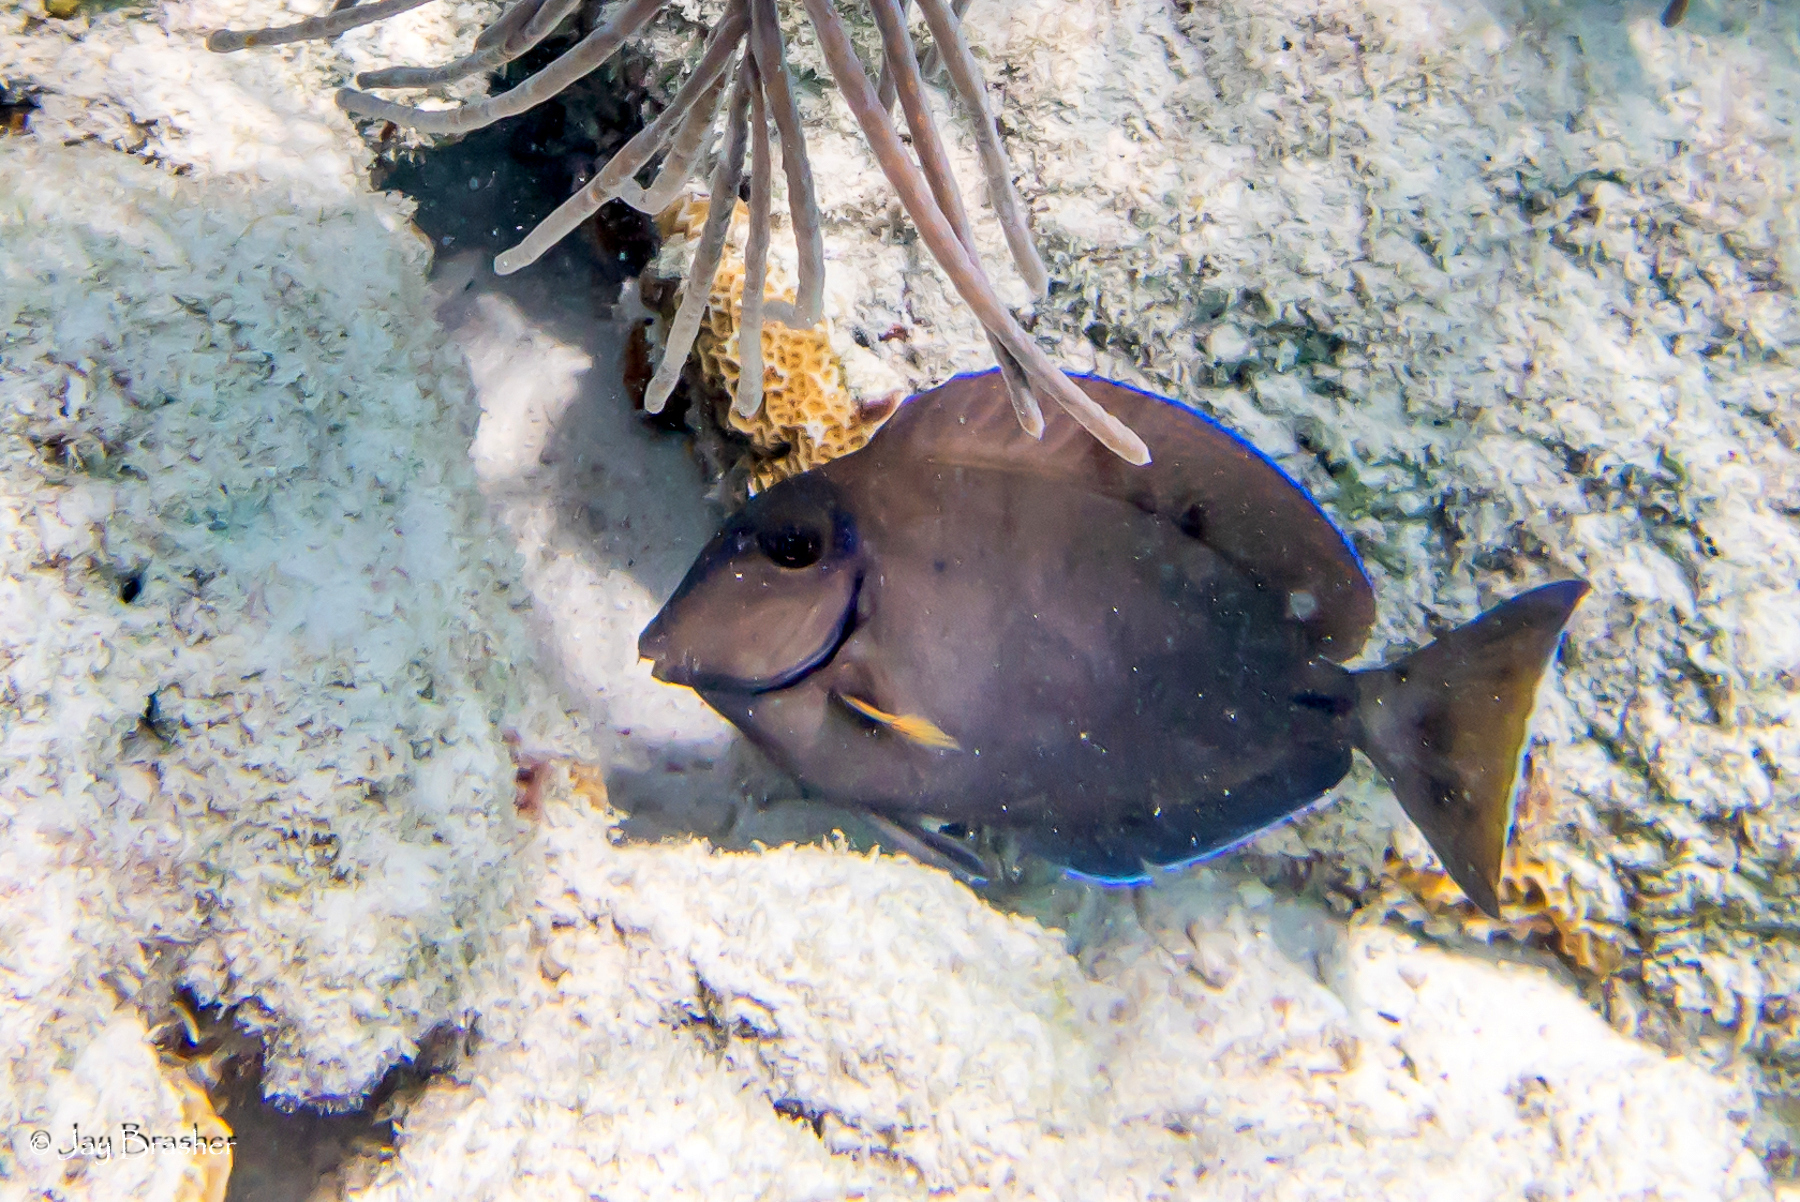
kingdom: Animalia
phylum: Chordata
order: Perciformes
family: Acanthuridae
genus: Acanthurus
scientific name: Acanthurus bahianus
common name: Ocean surgeon
